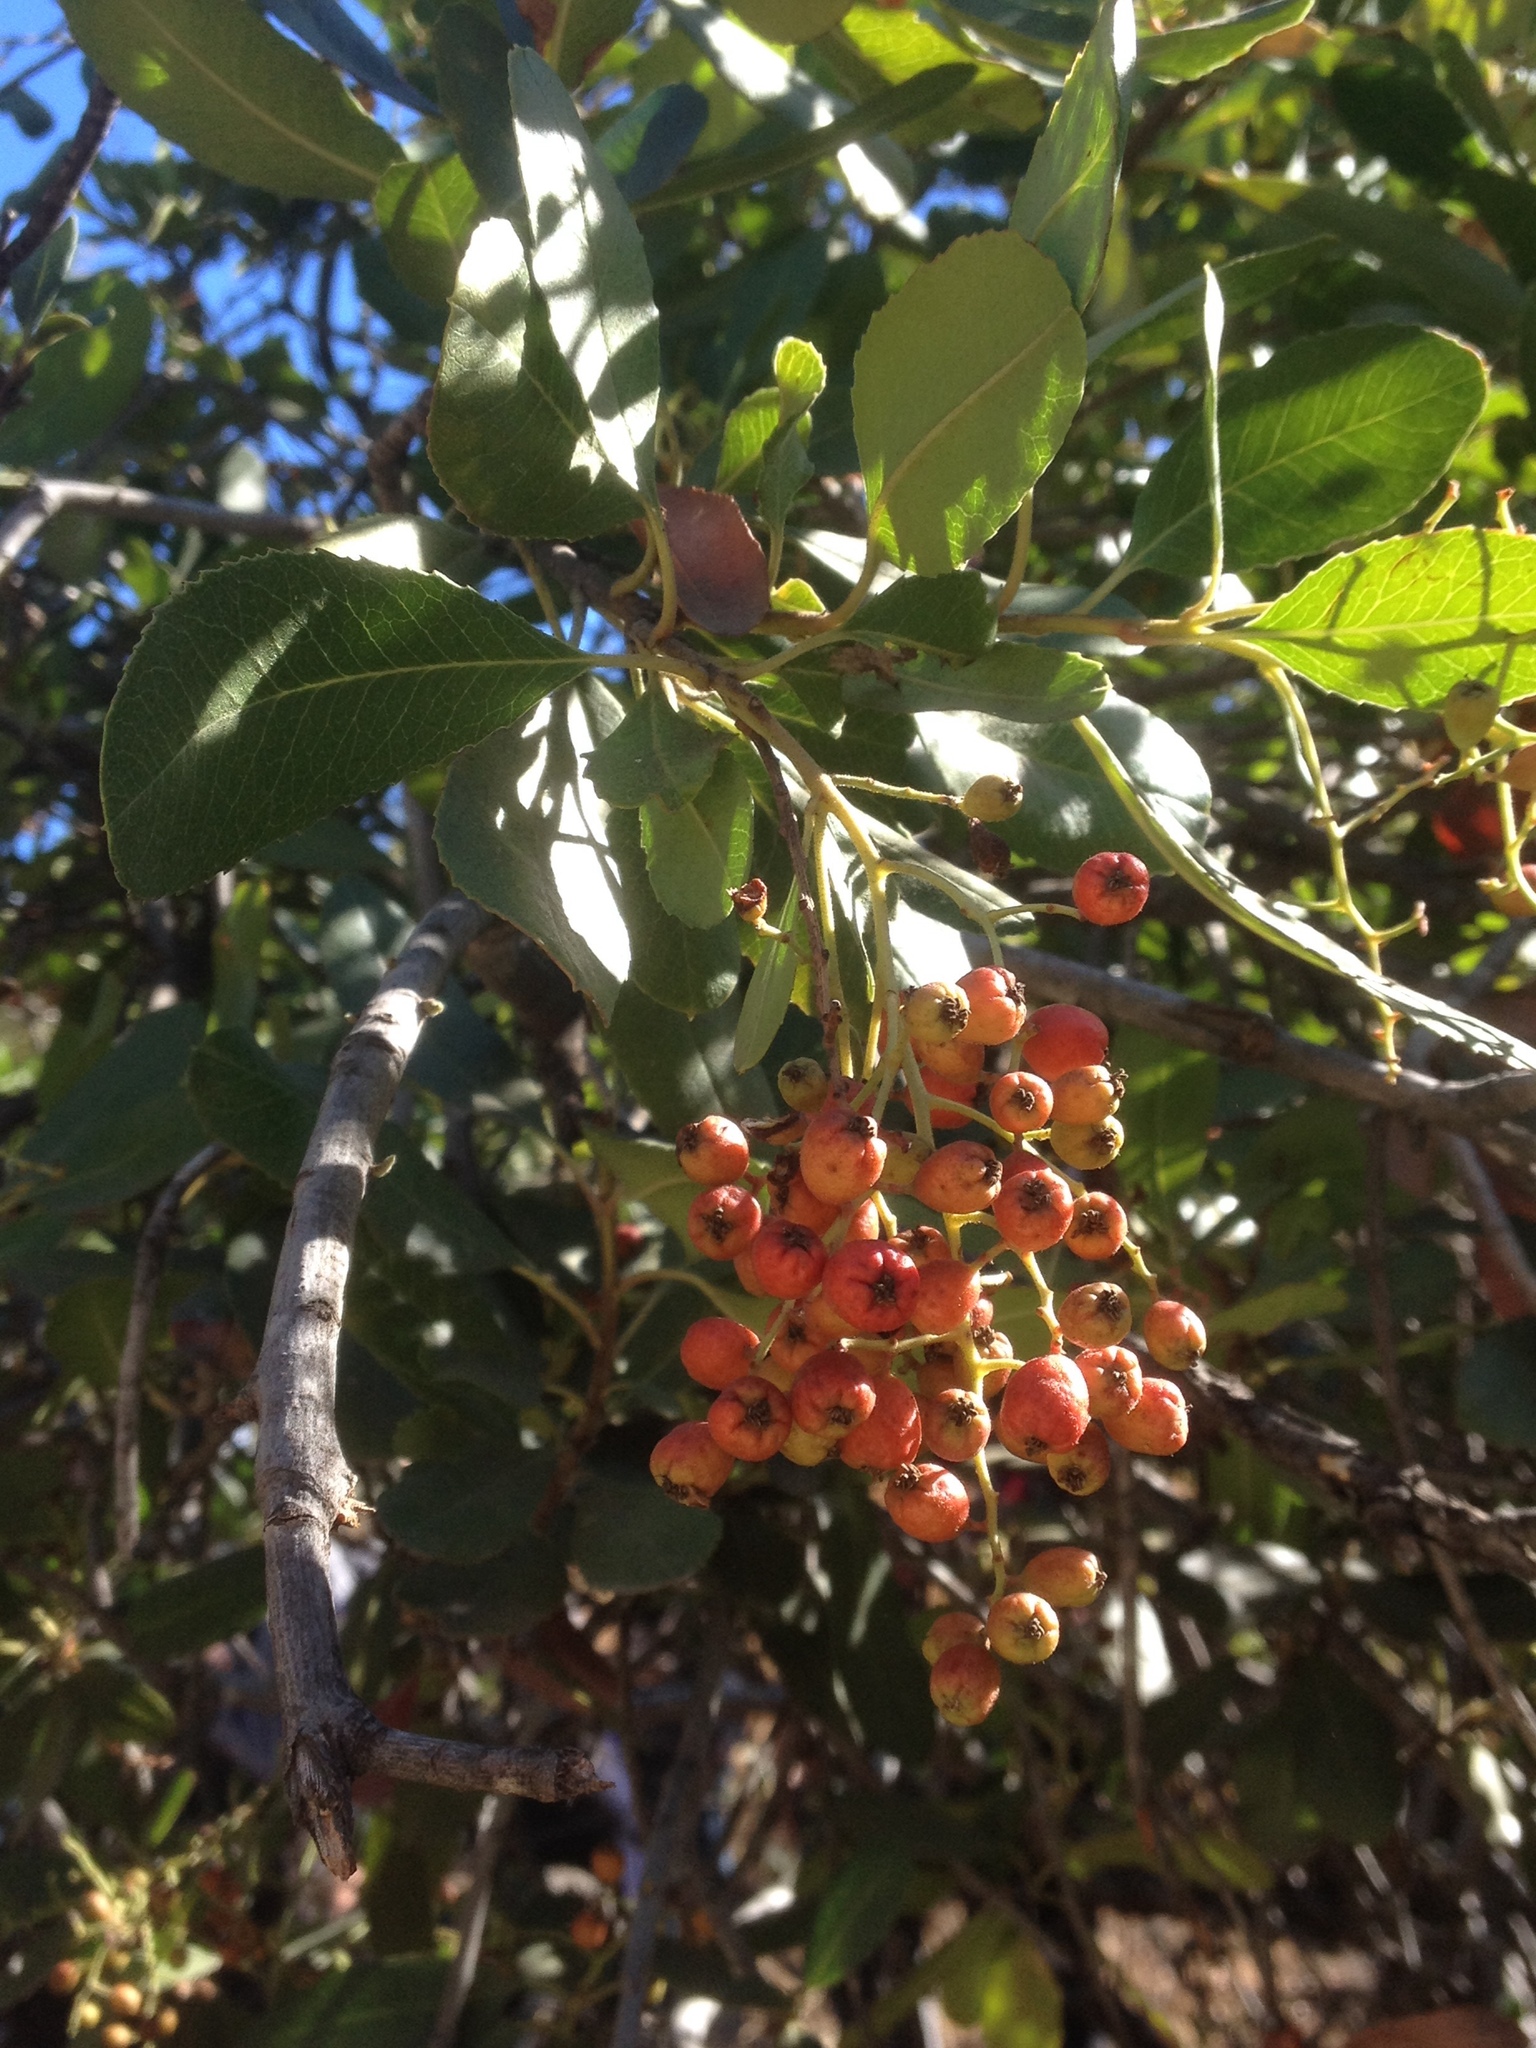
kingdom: Plantae
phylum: Tracheophyta
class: Magnoliopsida
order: Rosales
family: Rosaceae
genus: Heteromeles
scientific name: Heteromeles arbutifolia
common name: California-holly
